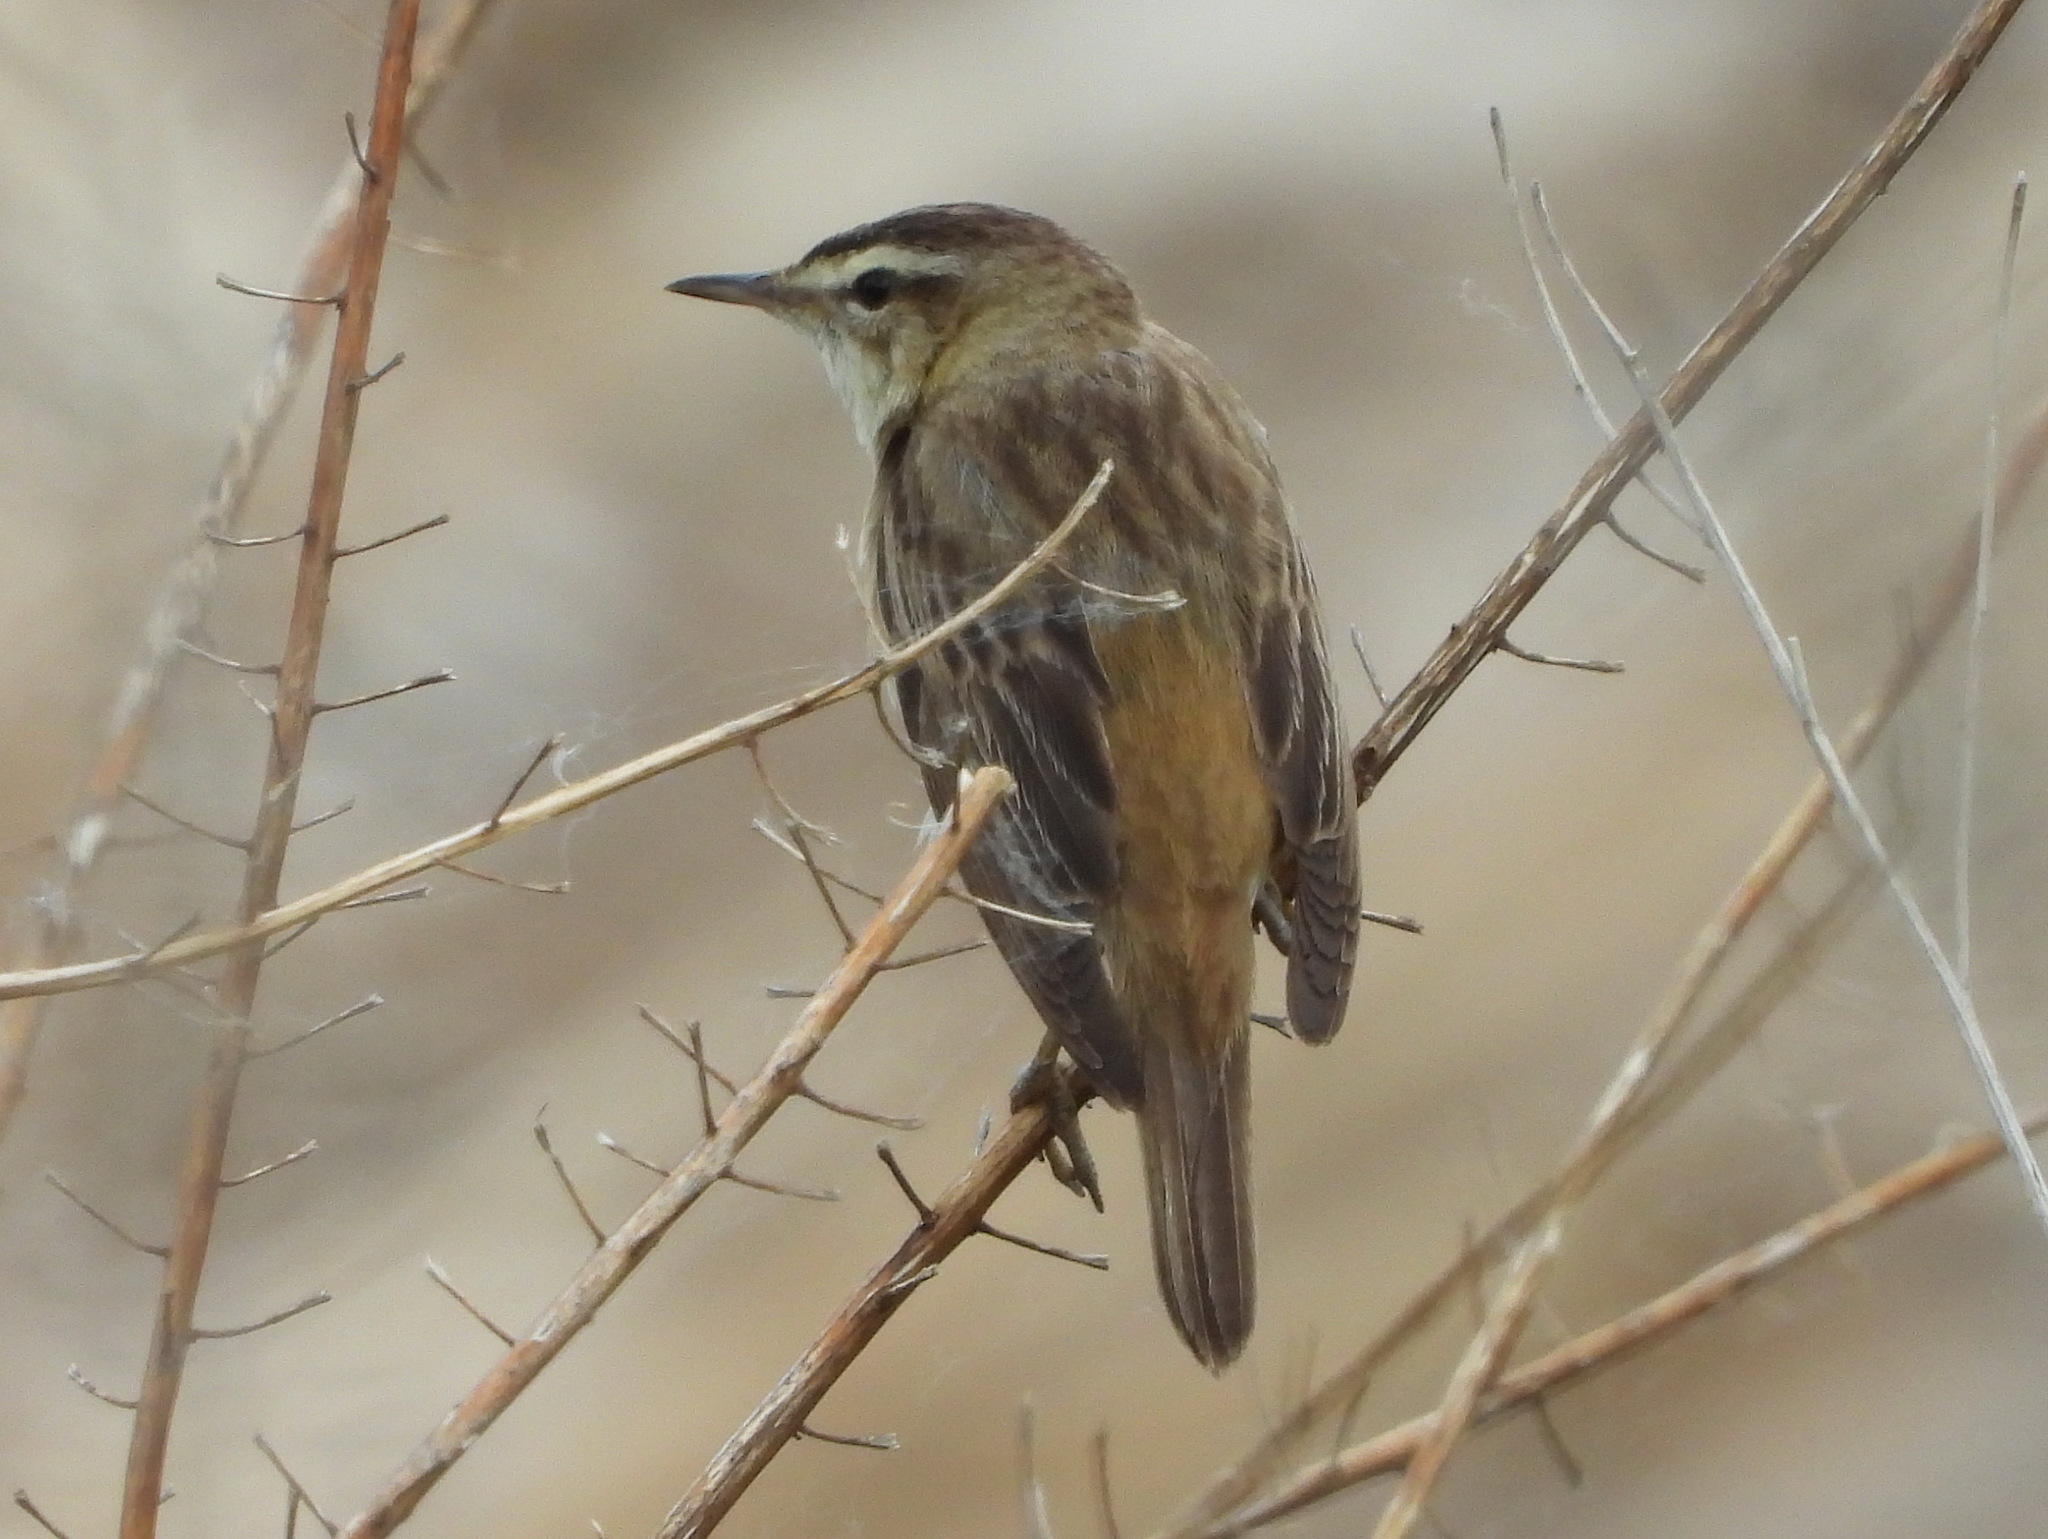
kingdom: Animalia
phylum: Chordata
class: Aves
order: Passeriformes
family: Acrocephalidae
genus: Acrocephalus
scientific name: Acrocephalus schoenobaenus
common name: Sedge warbler
